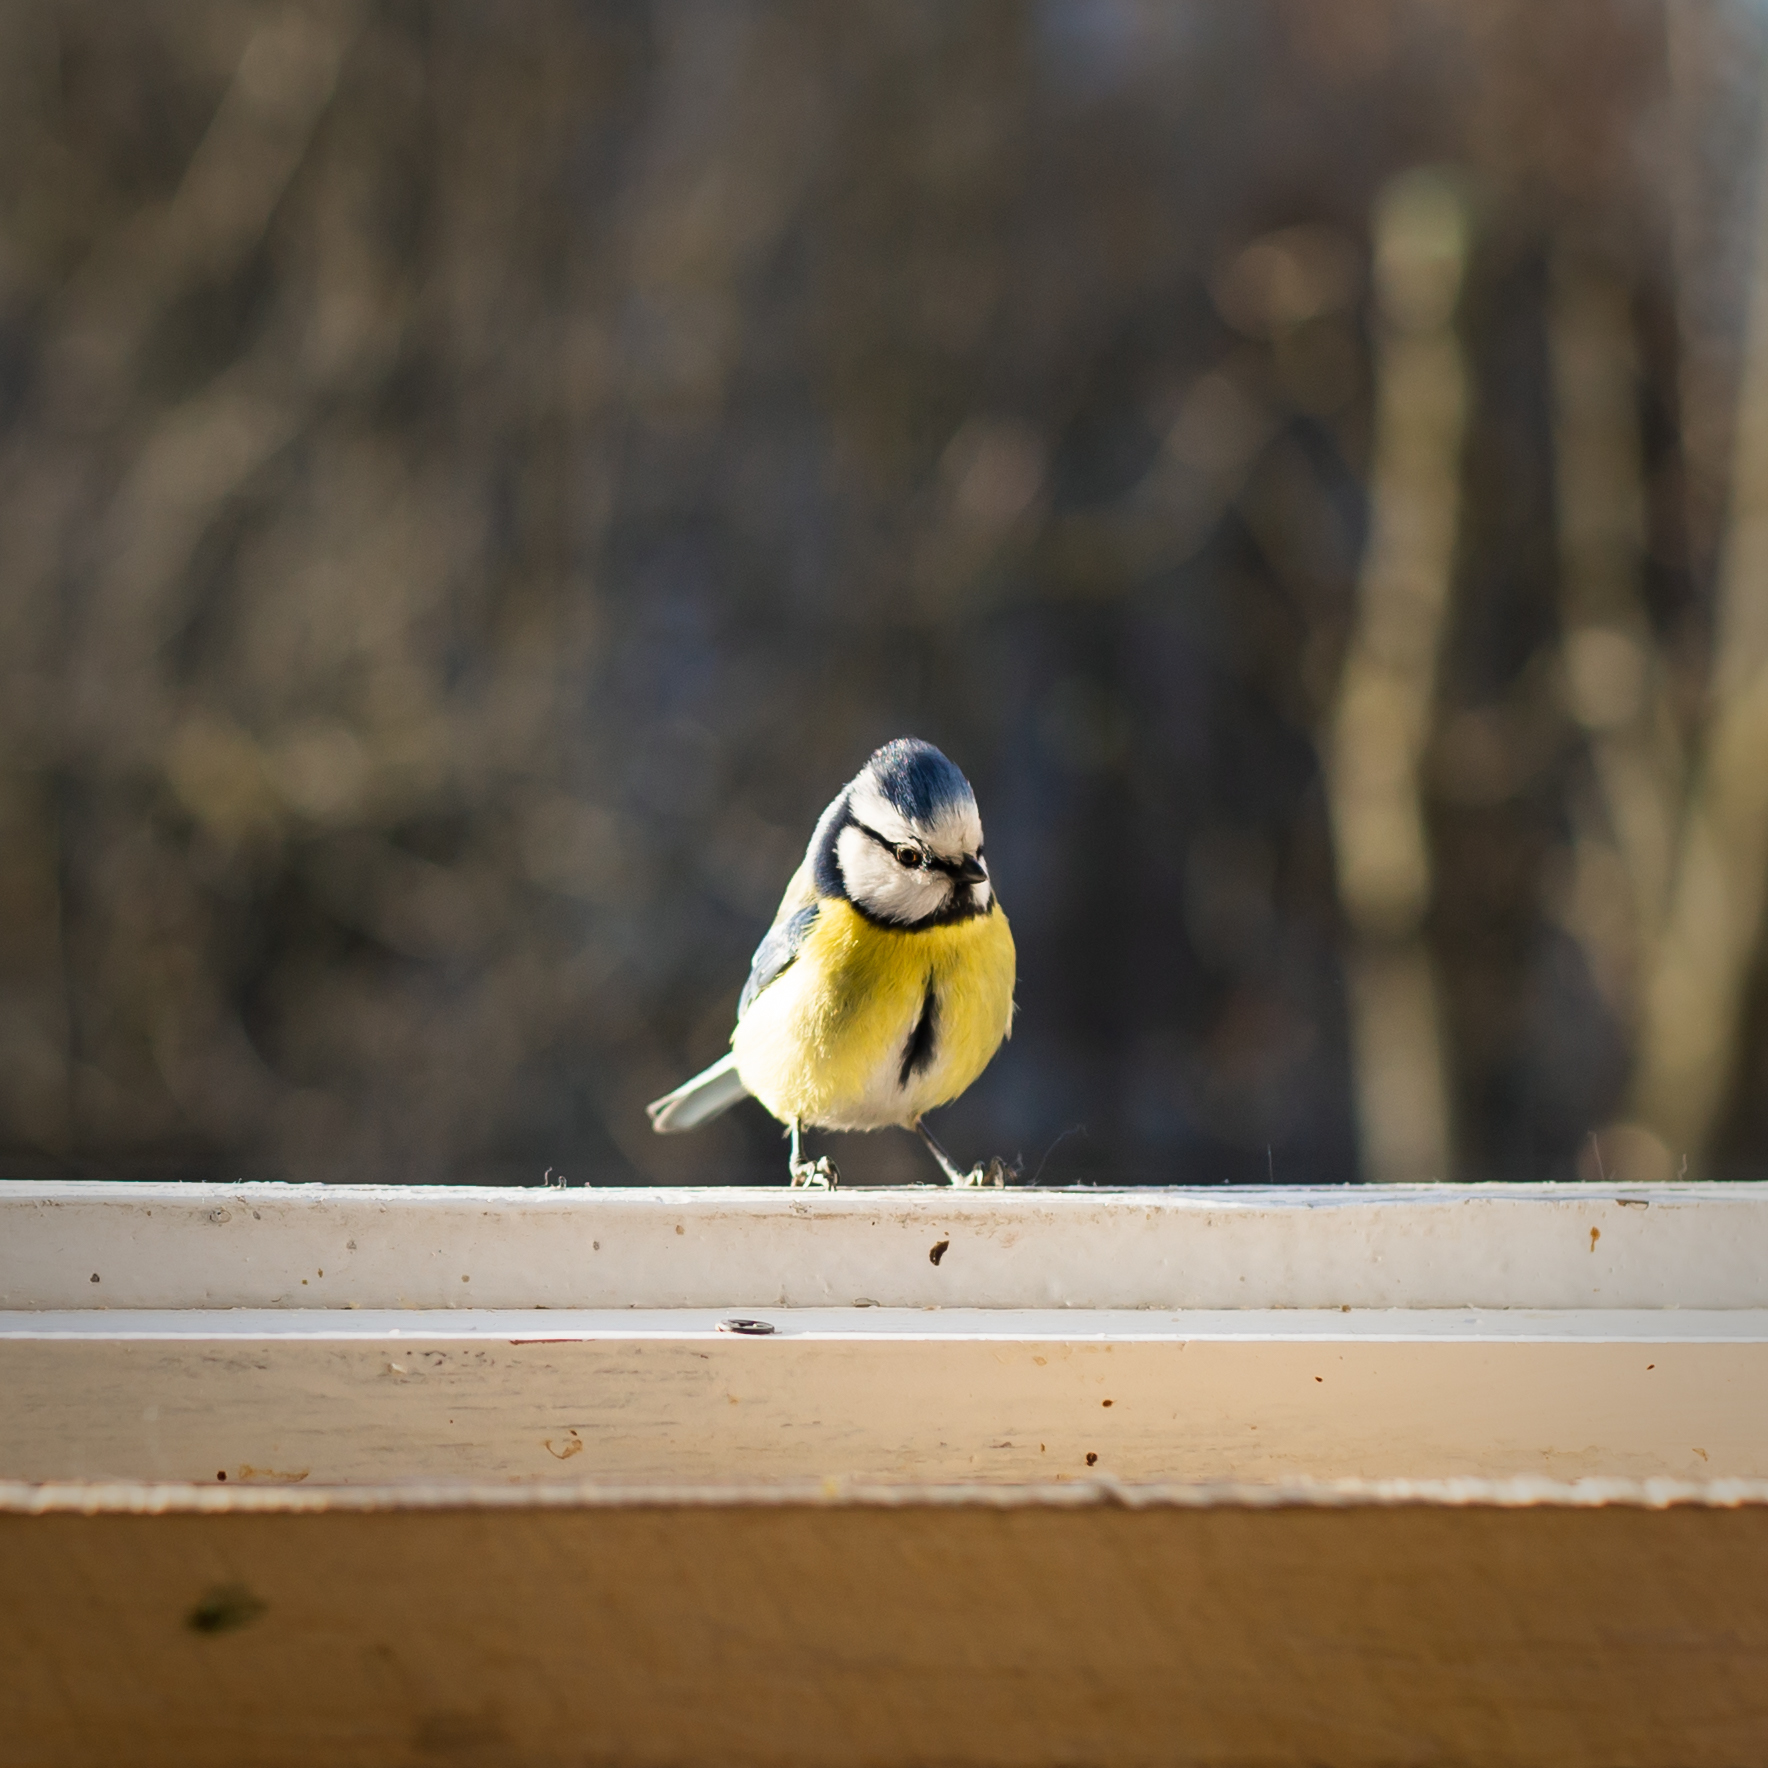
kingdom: Animalia
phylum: Chordata
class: Aves
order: Passeriformes
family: Paridae
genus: Cyanistes
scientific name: Cyanistes caeruleus
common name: Eurasian blue tit
